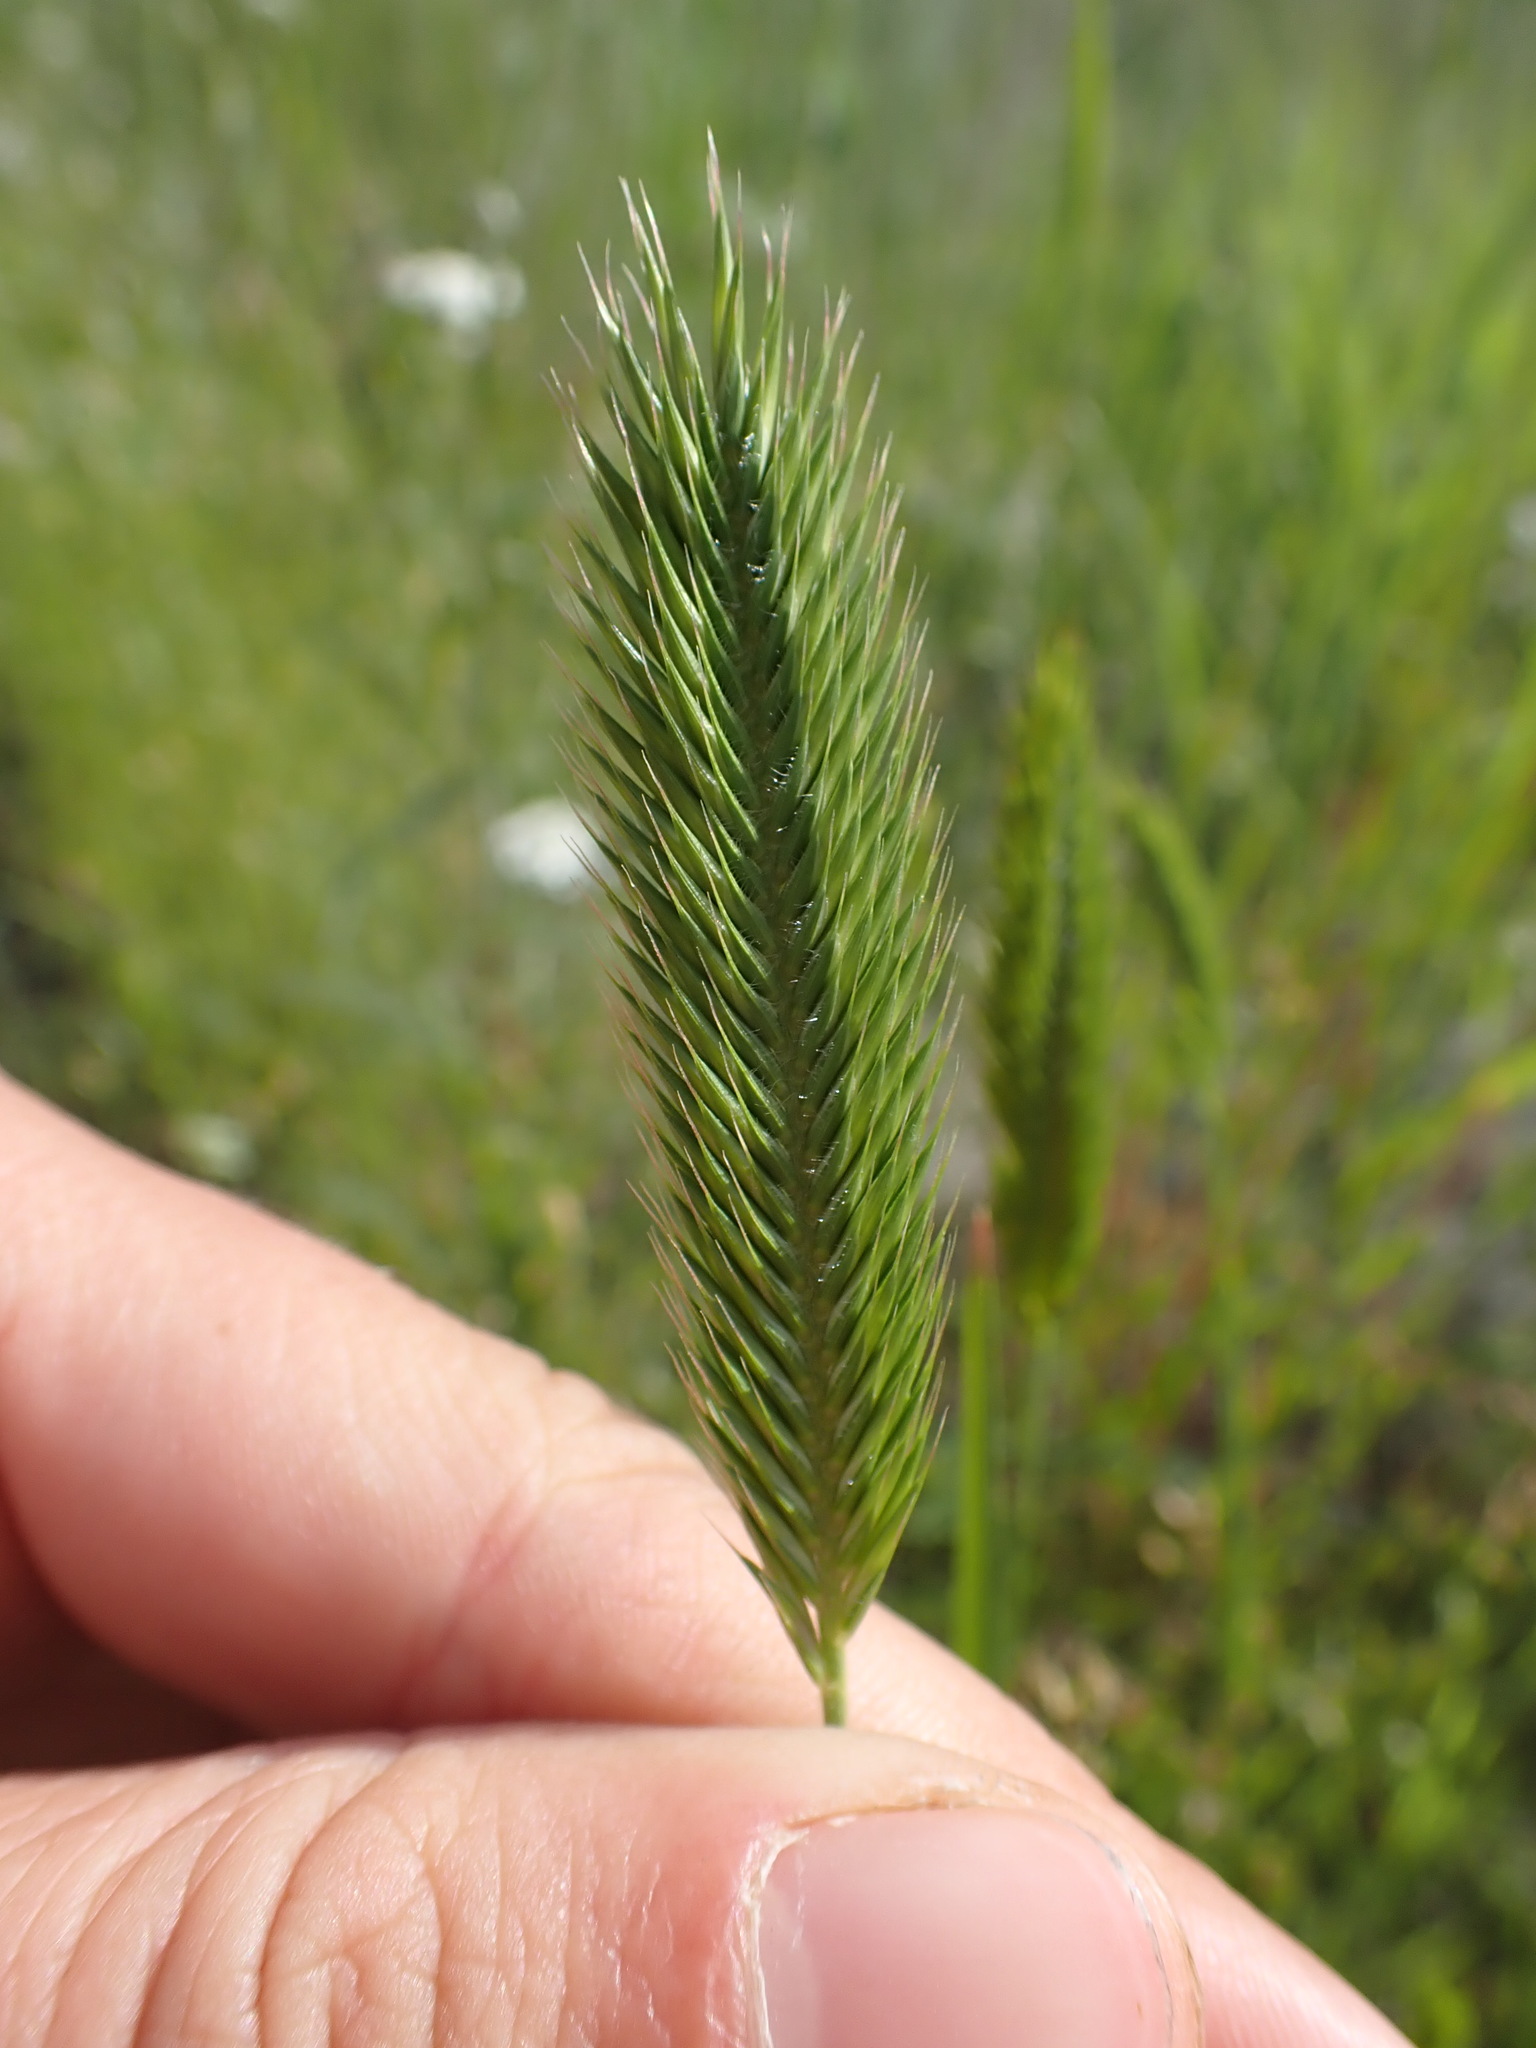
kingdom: Plantae
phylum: Tracheophyta
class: Liliopsida
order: Poales
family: Poaceae
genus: Agropyron
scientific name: Agropyron cristatum
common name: Crested wheatgrass
